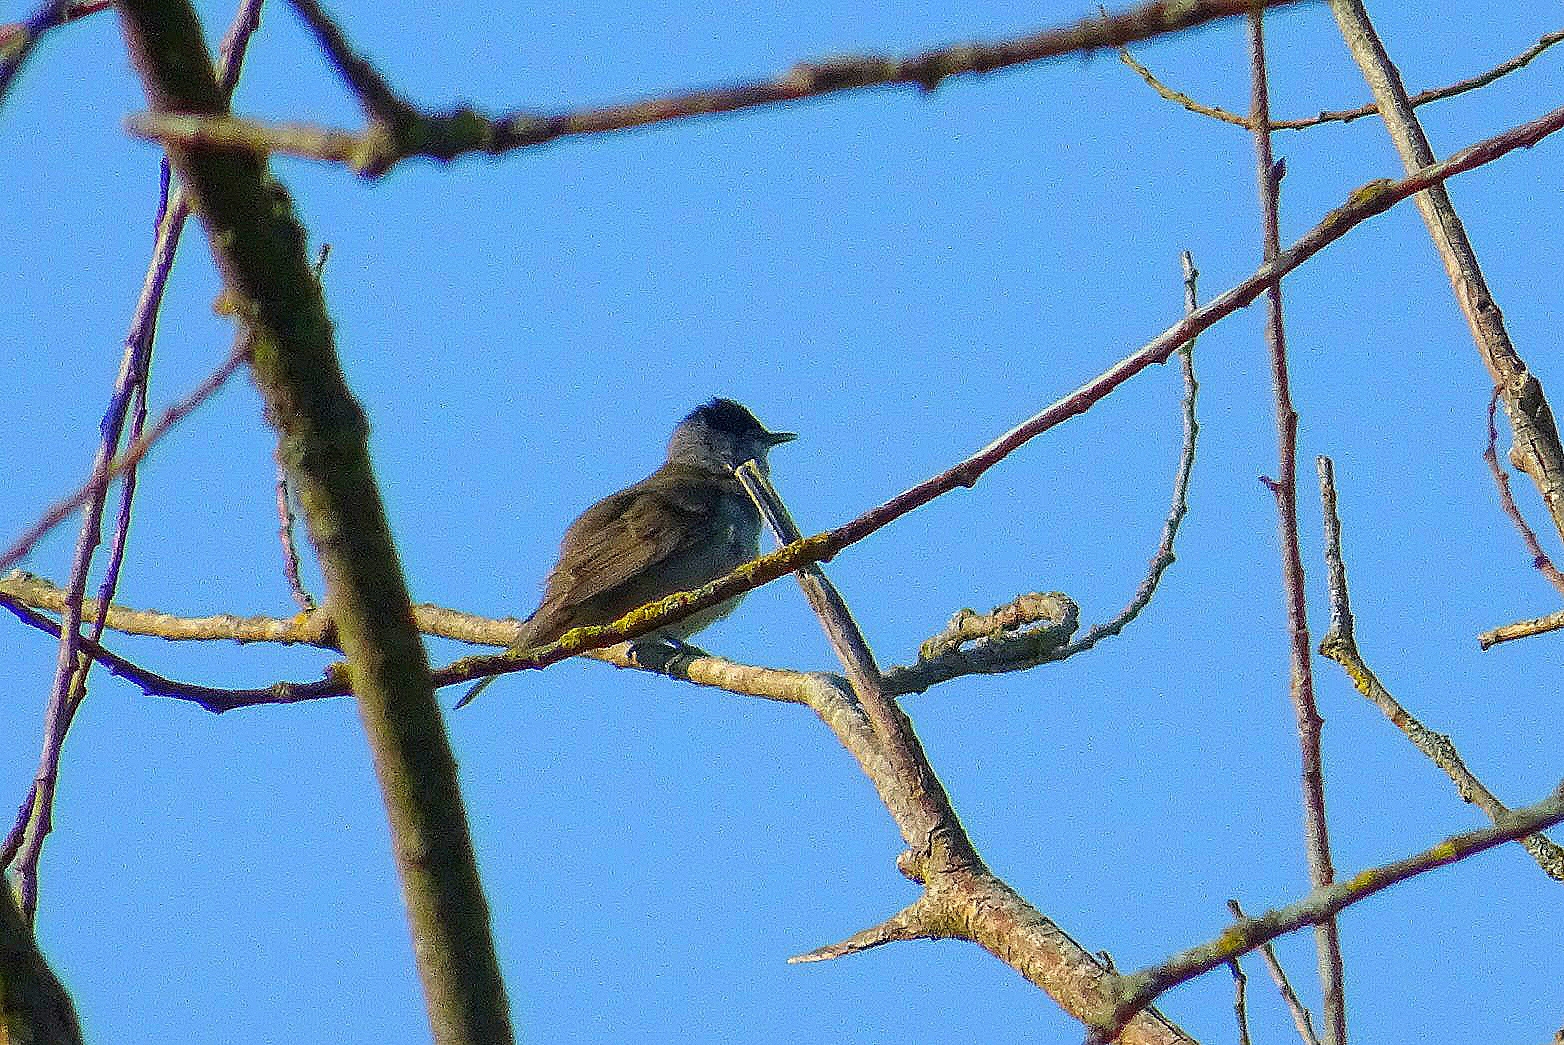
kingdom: Animalia
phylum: Chordata
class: Aves
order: Passeriformes
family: Sylviidae
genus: Sylvia
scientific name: Sylvia atricapilla
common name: Eurasian blackcap
